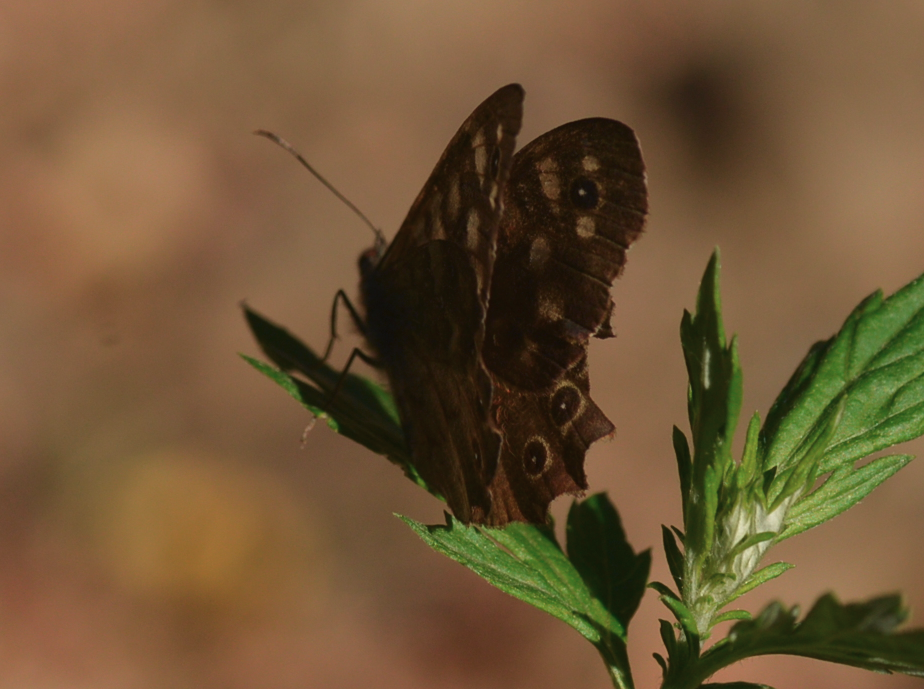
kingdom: Animalia
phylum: Arthropoda
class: Insecta
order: Lepidoptera
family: Nymphalidae
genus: Pararge
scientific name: Pararge aegeria
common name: Speckled wood
